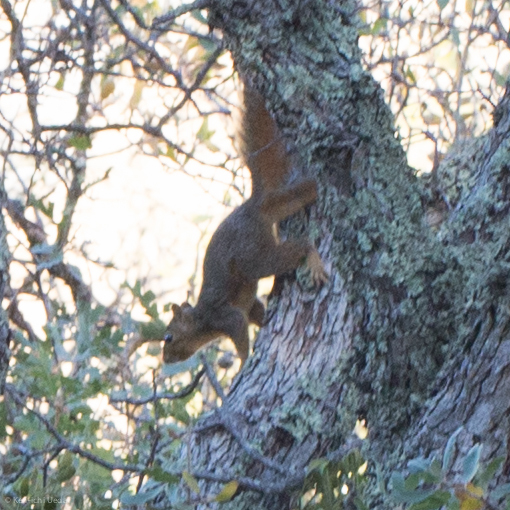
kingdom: Animalia
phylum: Chordata
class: Mammalia
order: Rodentia
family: Sciuridae
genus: Sciurus
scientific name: Sciurus niger
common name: Fox squirrel
